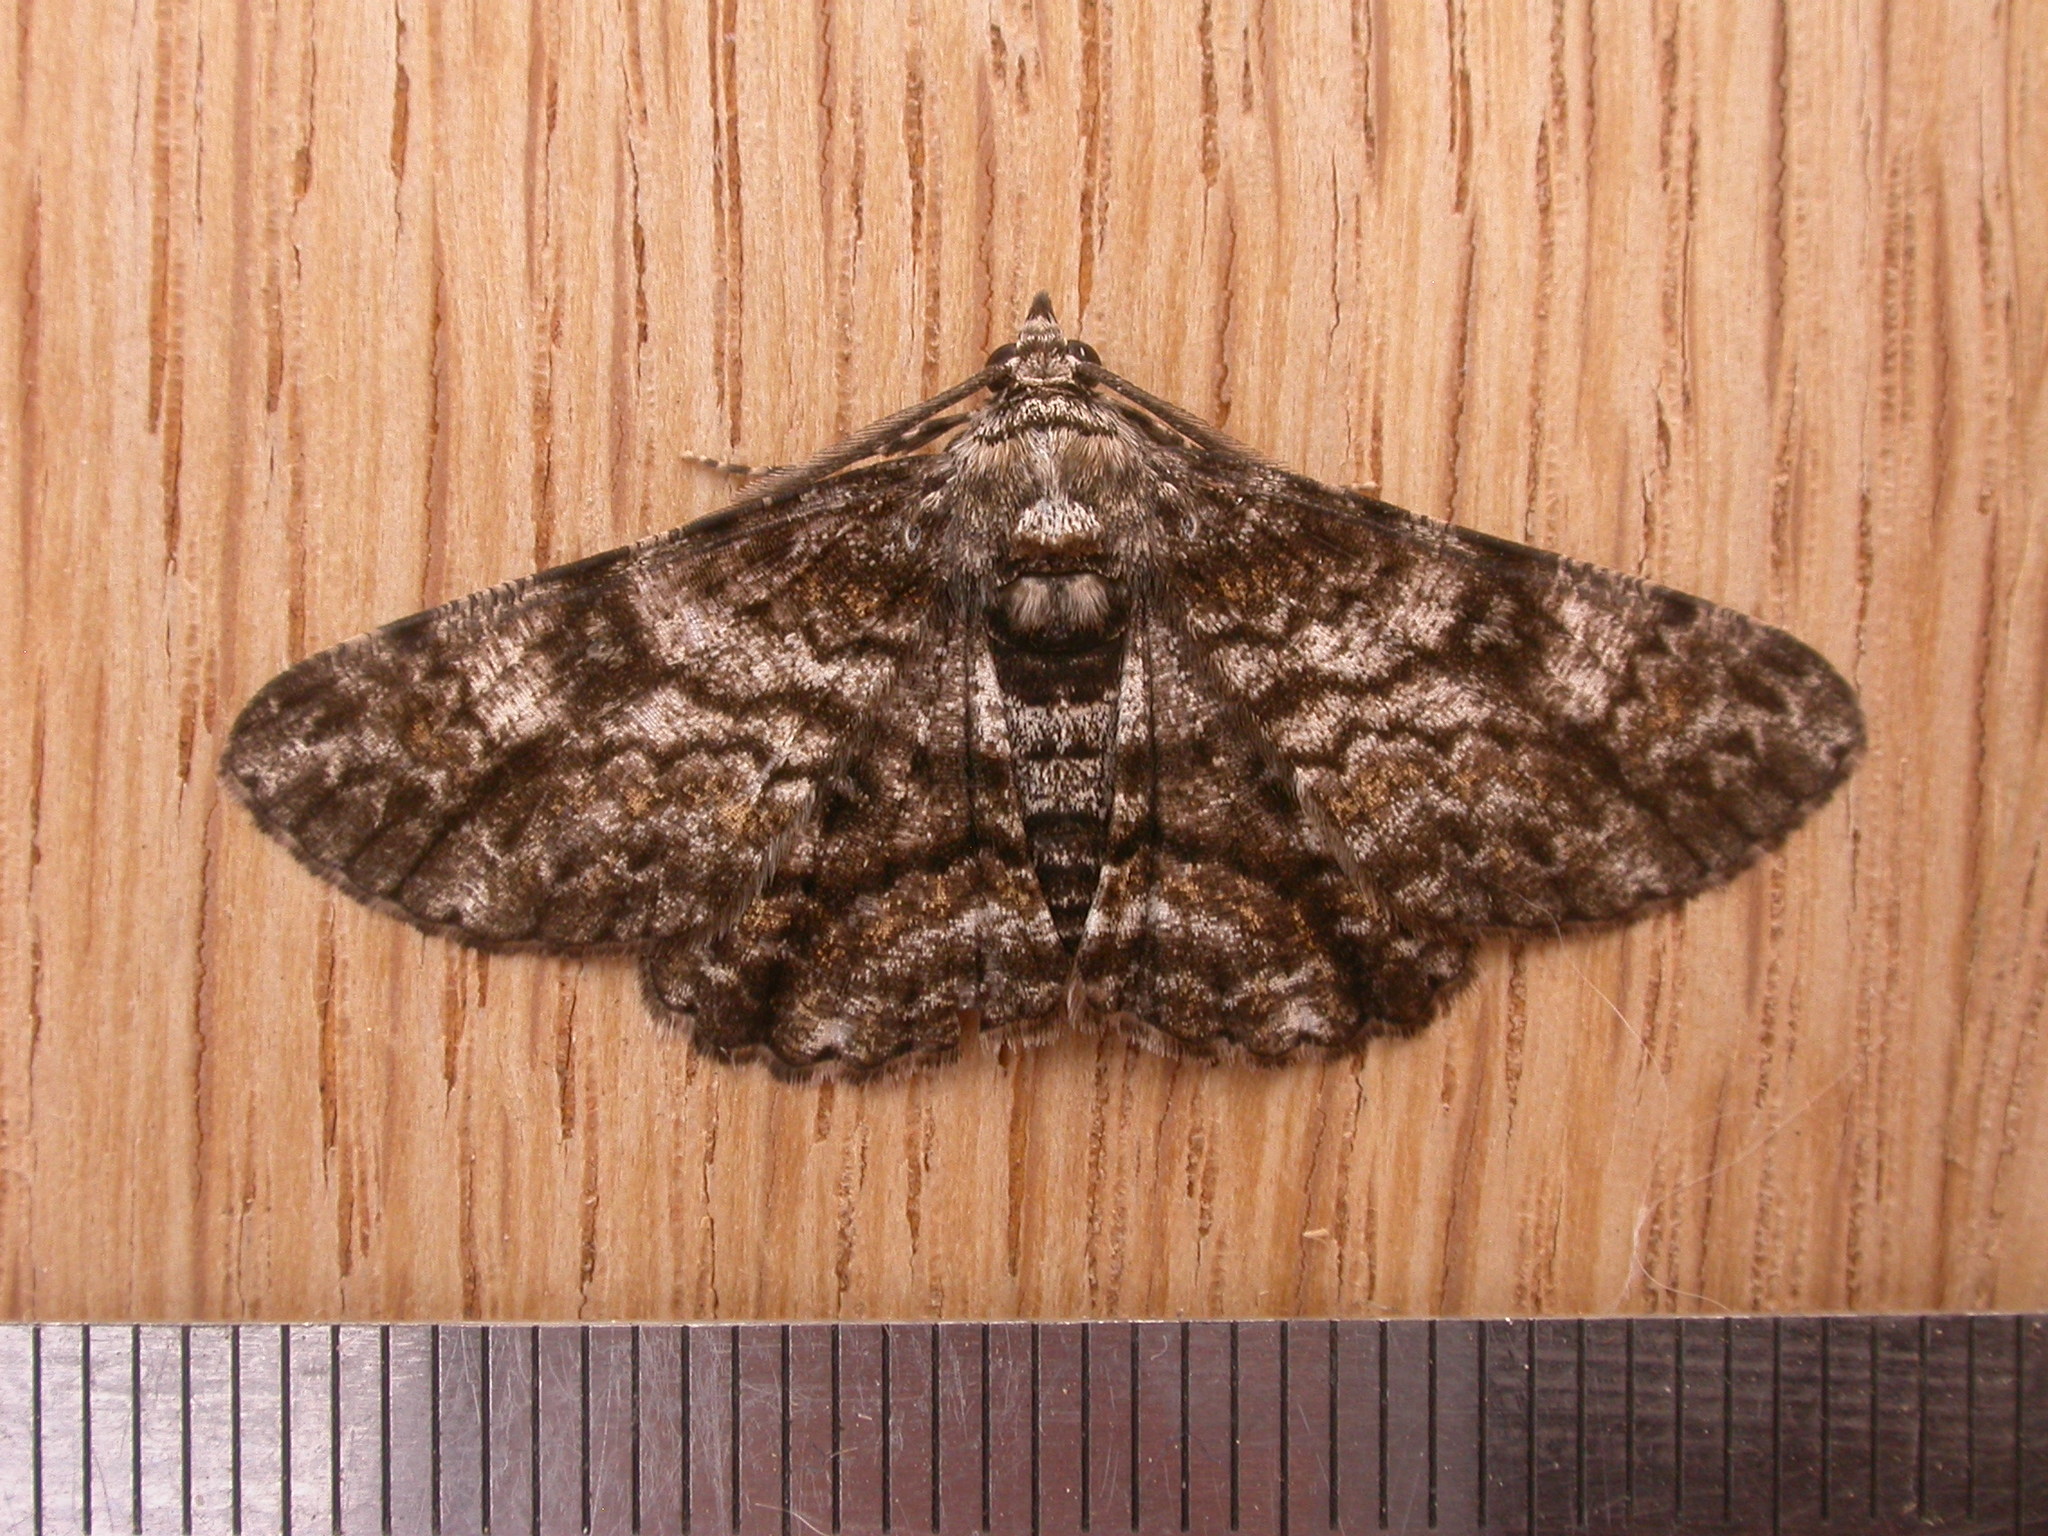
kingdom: Animalia
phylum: Arthropoda
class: Insecta
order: Lepidoptera
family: Geometridae
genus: Cleora
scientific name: Cleora injectaria
